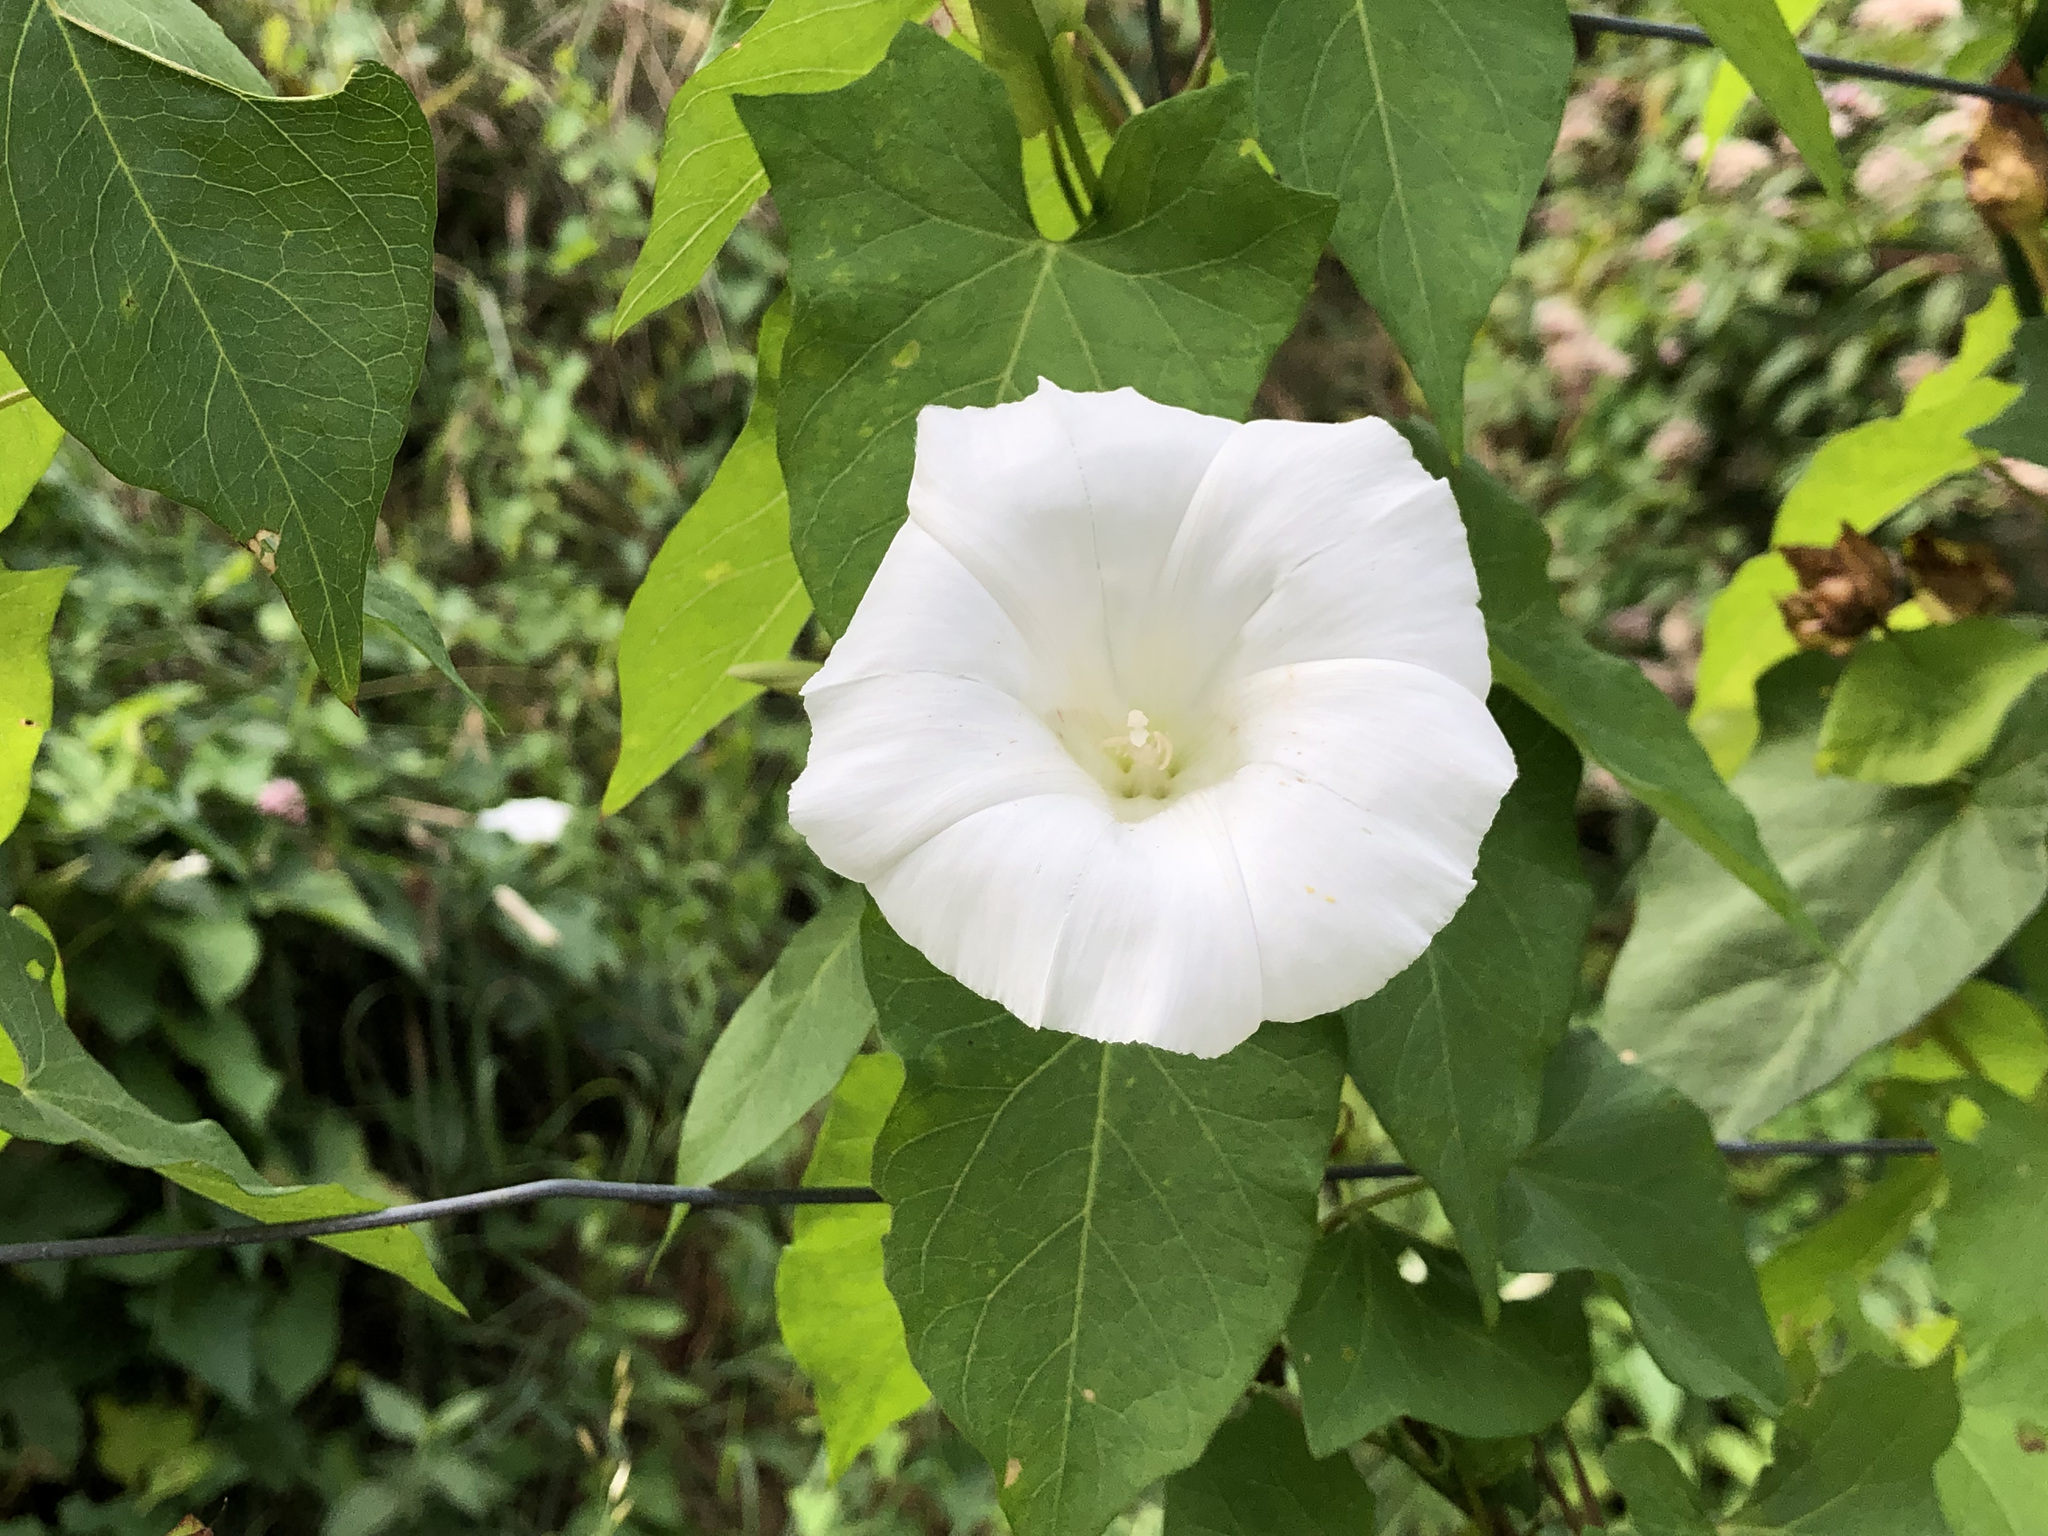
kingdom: Plantae
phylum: Tracheophyta
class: Magnoliopsida
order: Solanales
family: Convolvulaceae
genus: Calystegia
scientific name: Calystegia sepium
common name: Hedge bindweed
